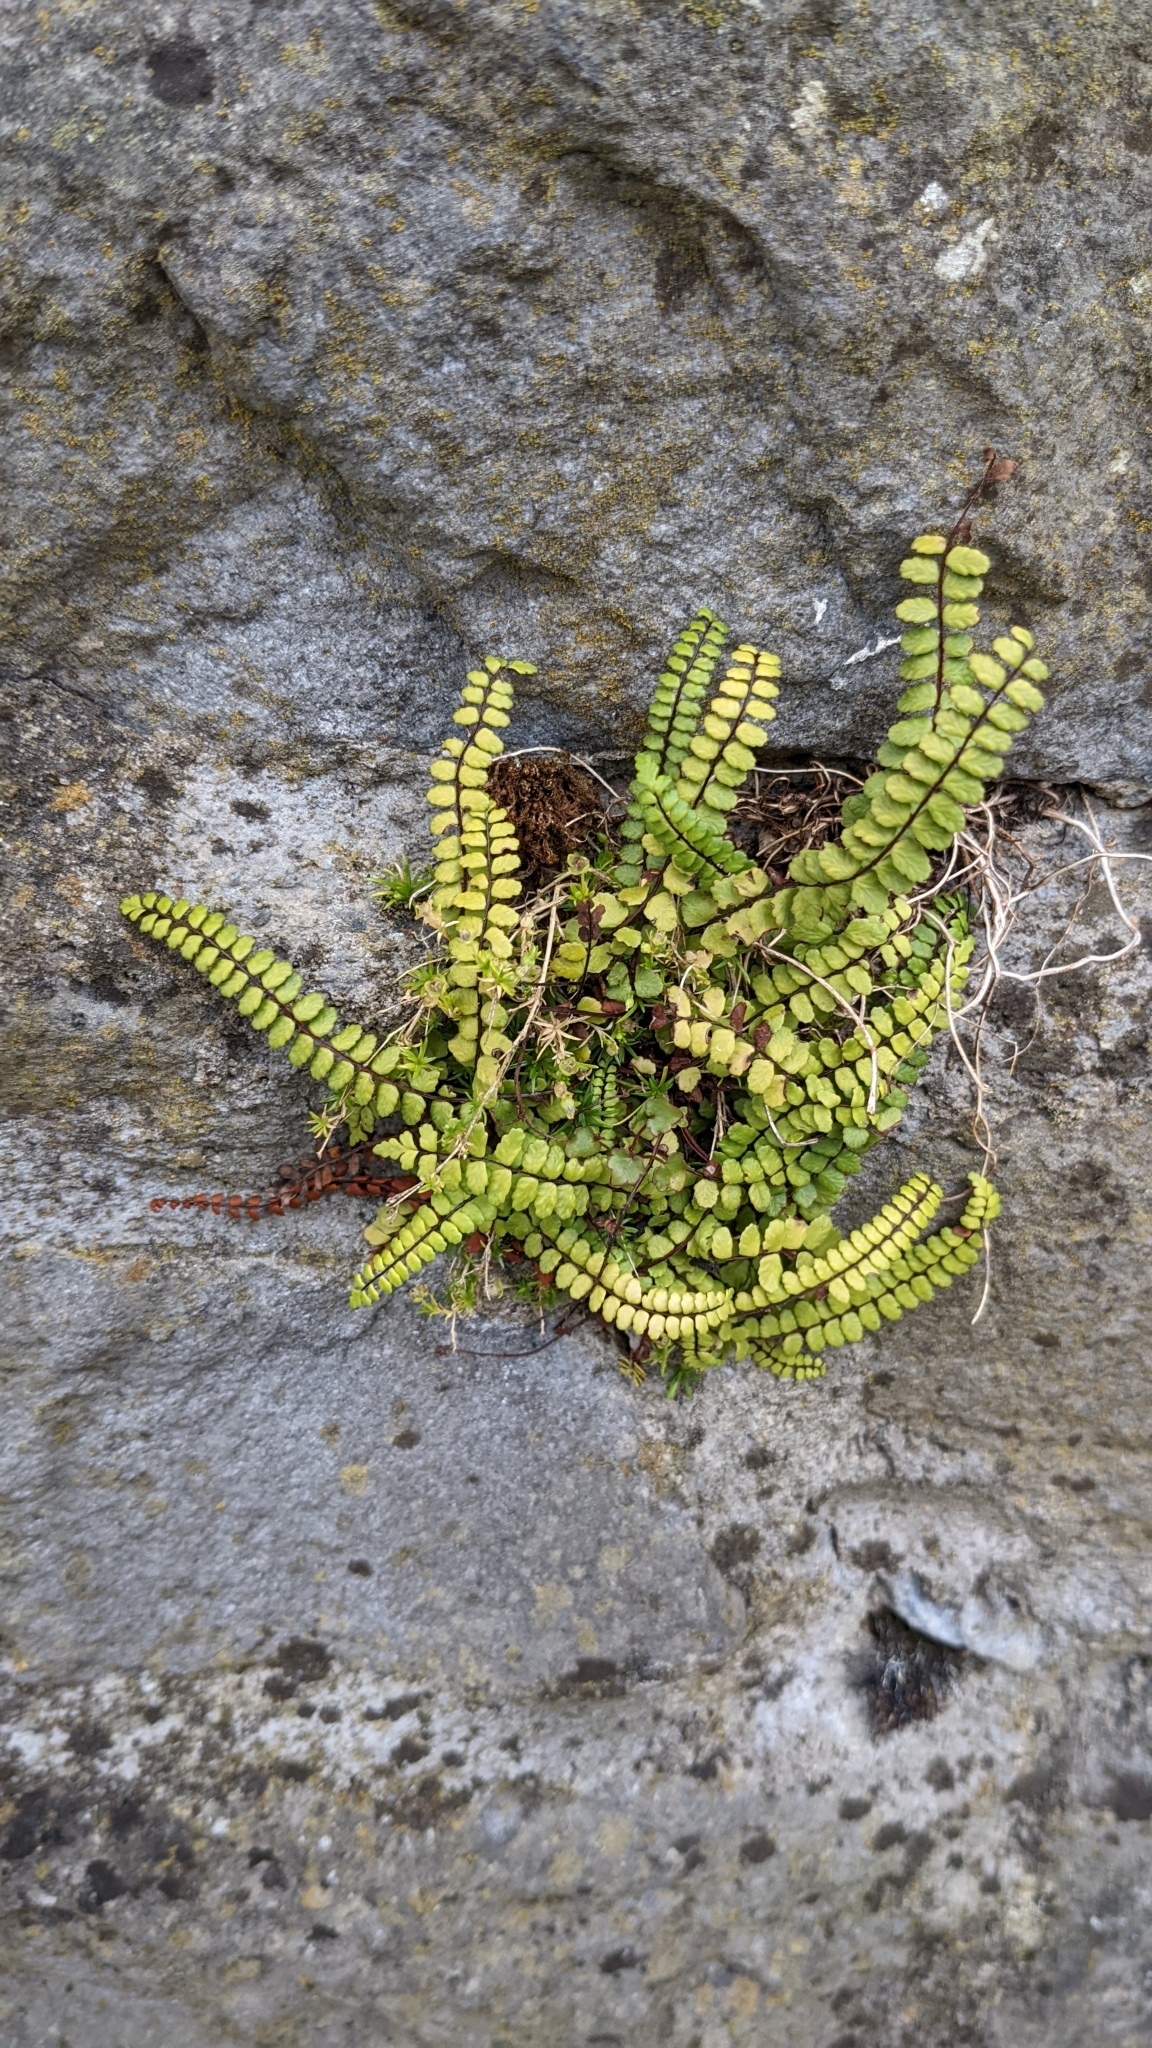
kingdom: Plantae
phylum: Tracheophyta
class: Polypodiopsida
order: Polypodiales
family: Aspleniaceae
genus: Asplenium
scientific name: Asplenium trichomanes
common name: Maidenhair spleenwort
